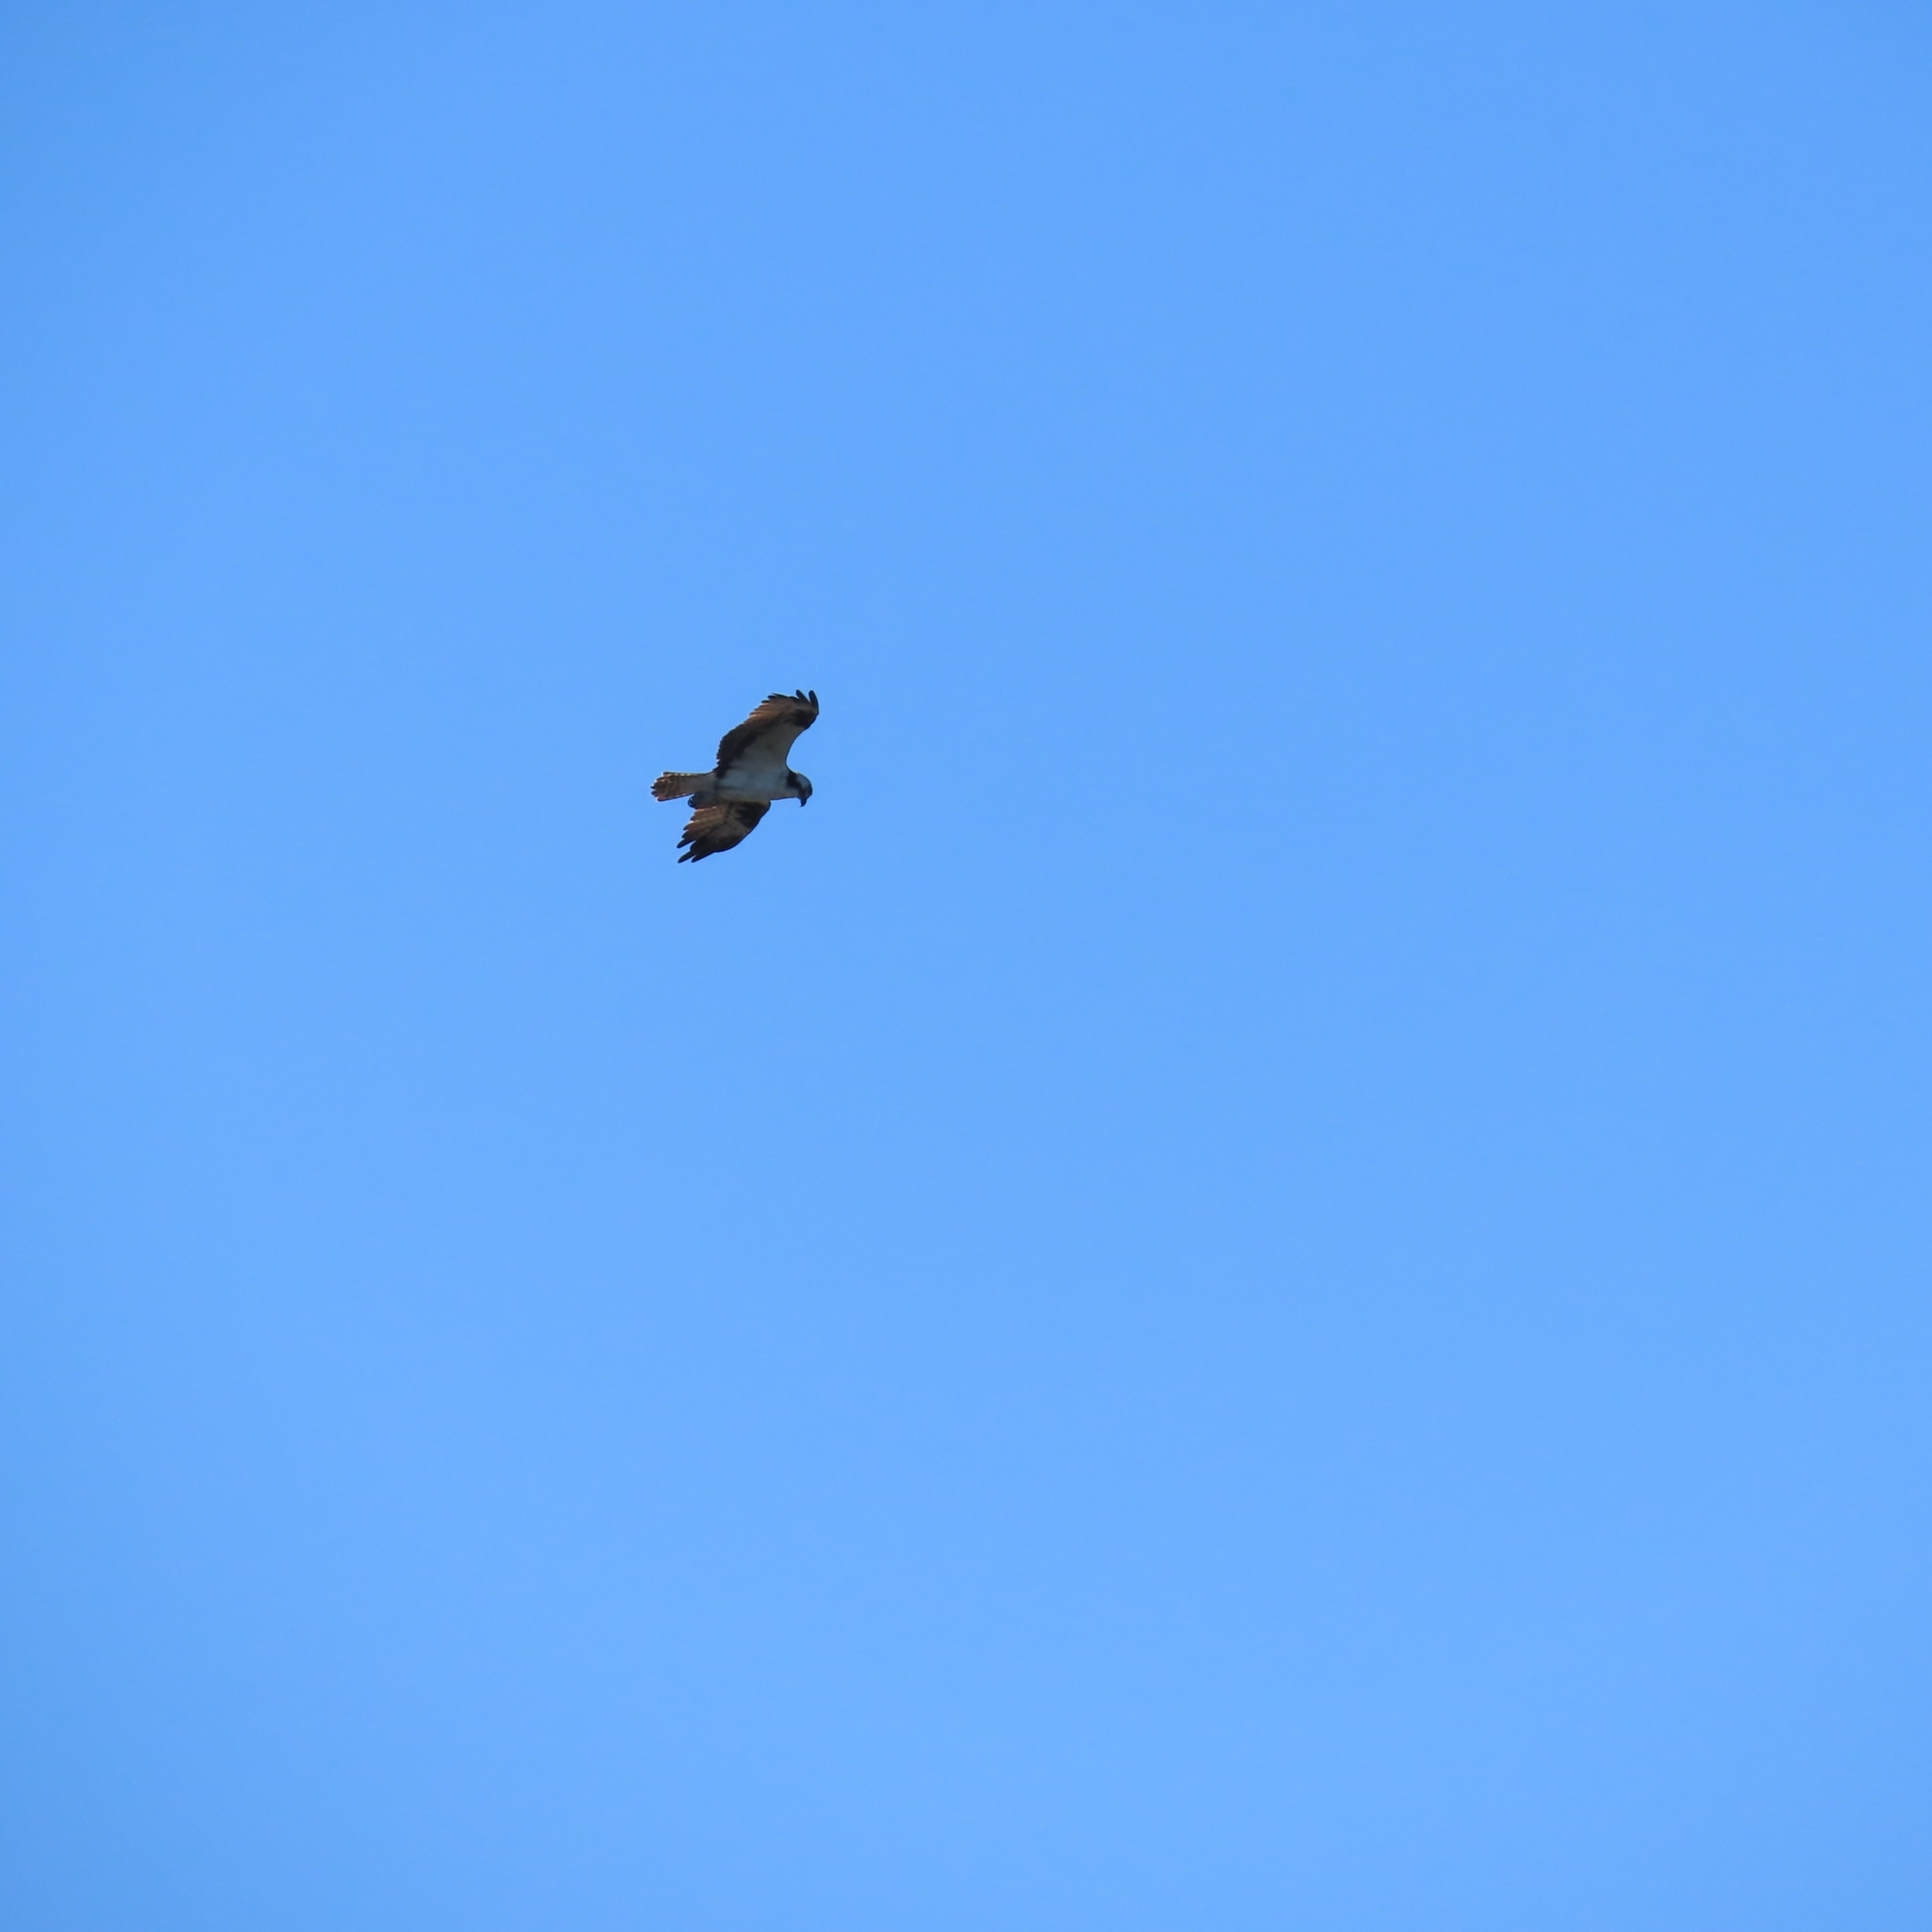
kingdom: Animalia
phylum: Chordata
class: Aves
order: Accipitriformes
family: Pandionidae
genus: Pandion
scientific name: Pandion haliaetus
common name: Osprey
